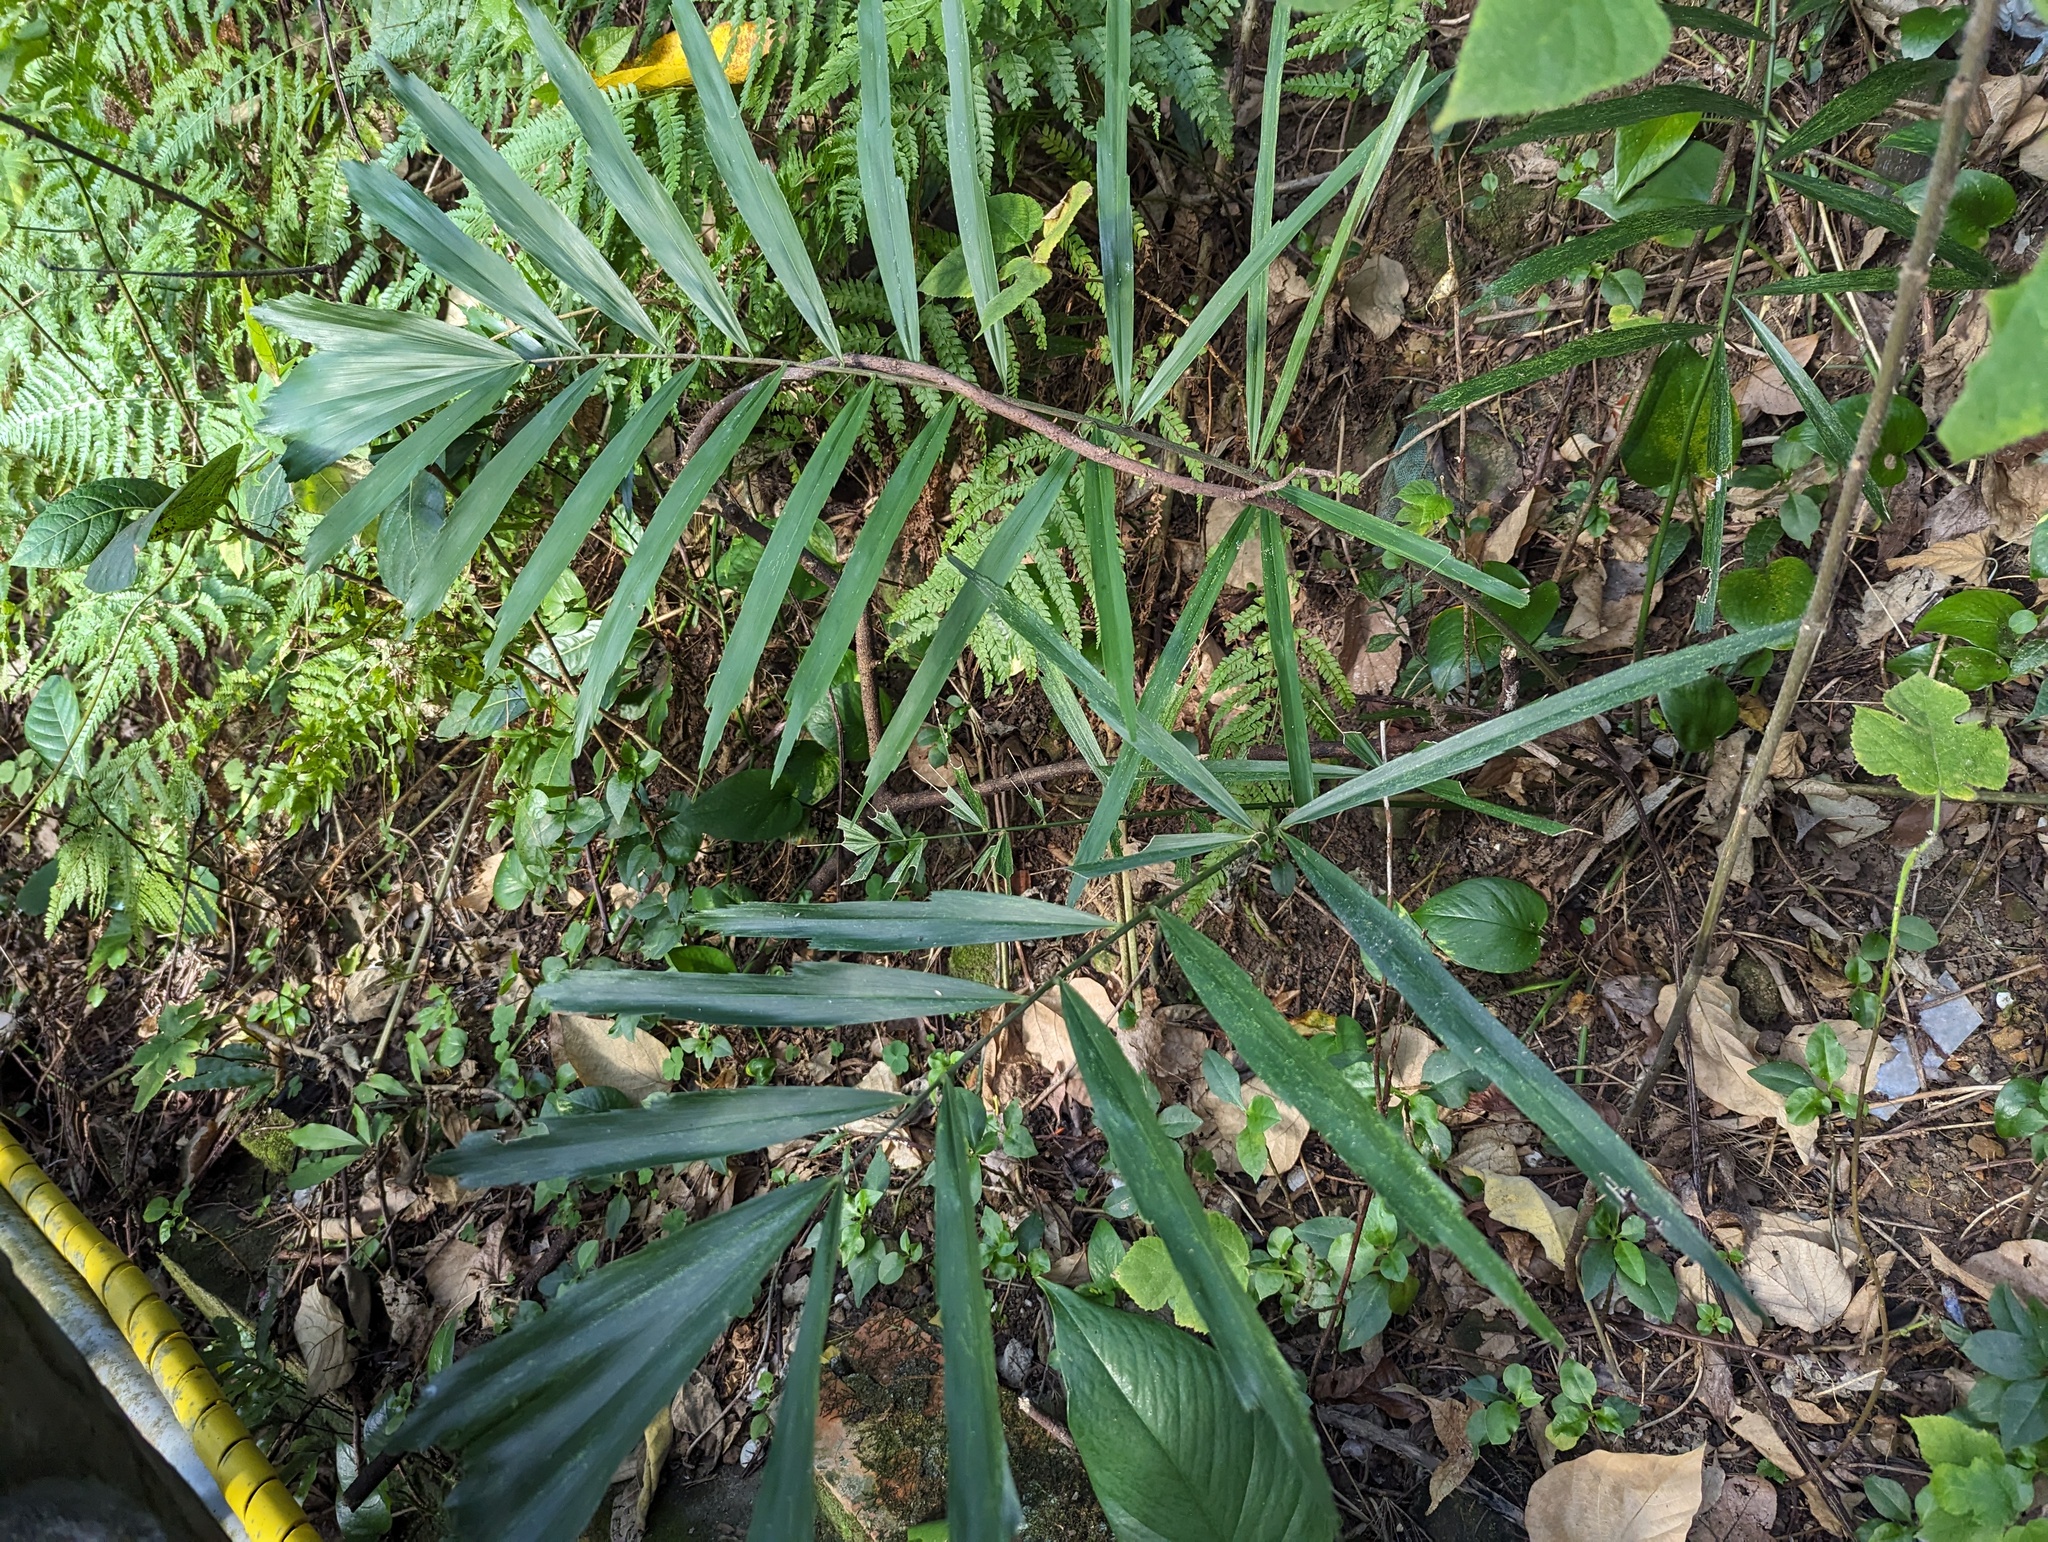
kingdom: Plantae
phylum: Tracheophyta
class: Liliopsida
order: Arecales
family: Arecaceae
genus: Arenga
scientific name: Arenga engleri
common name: Formosan sugar palm
